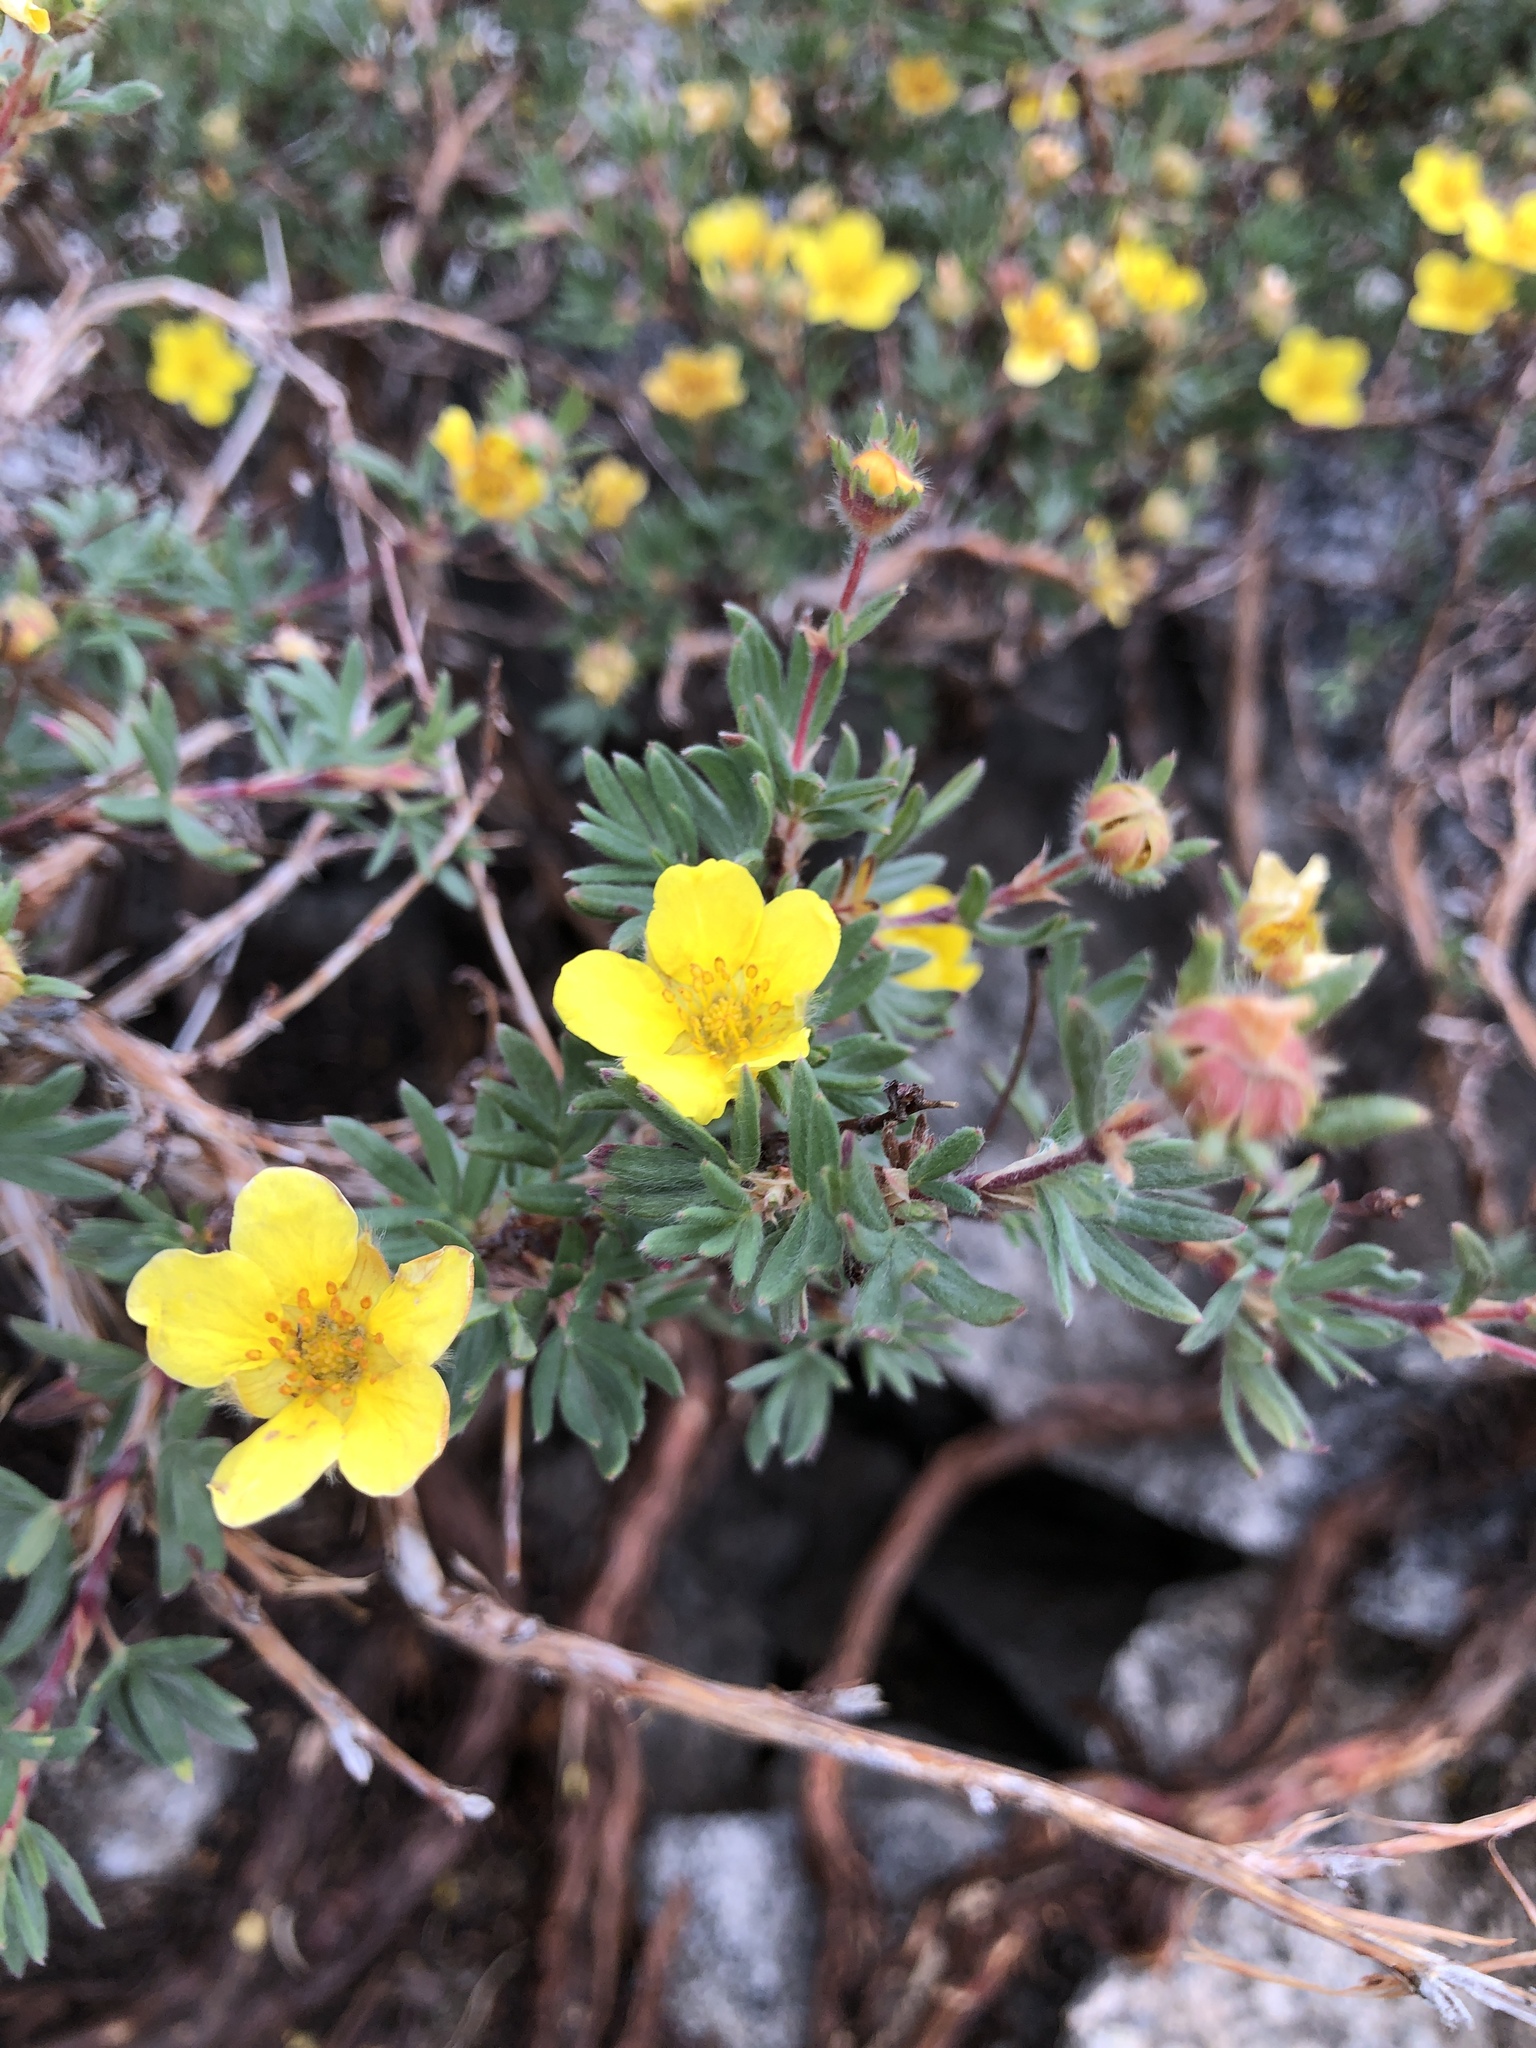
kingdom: Plantae
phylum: Tracheophyta
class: Magnoliopsida
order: Rosales
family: Rosaceae
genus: Dasiphora
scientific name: Dasiphora fruticosa
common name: Shrubby cinquefoil
